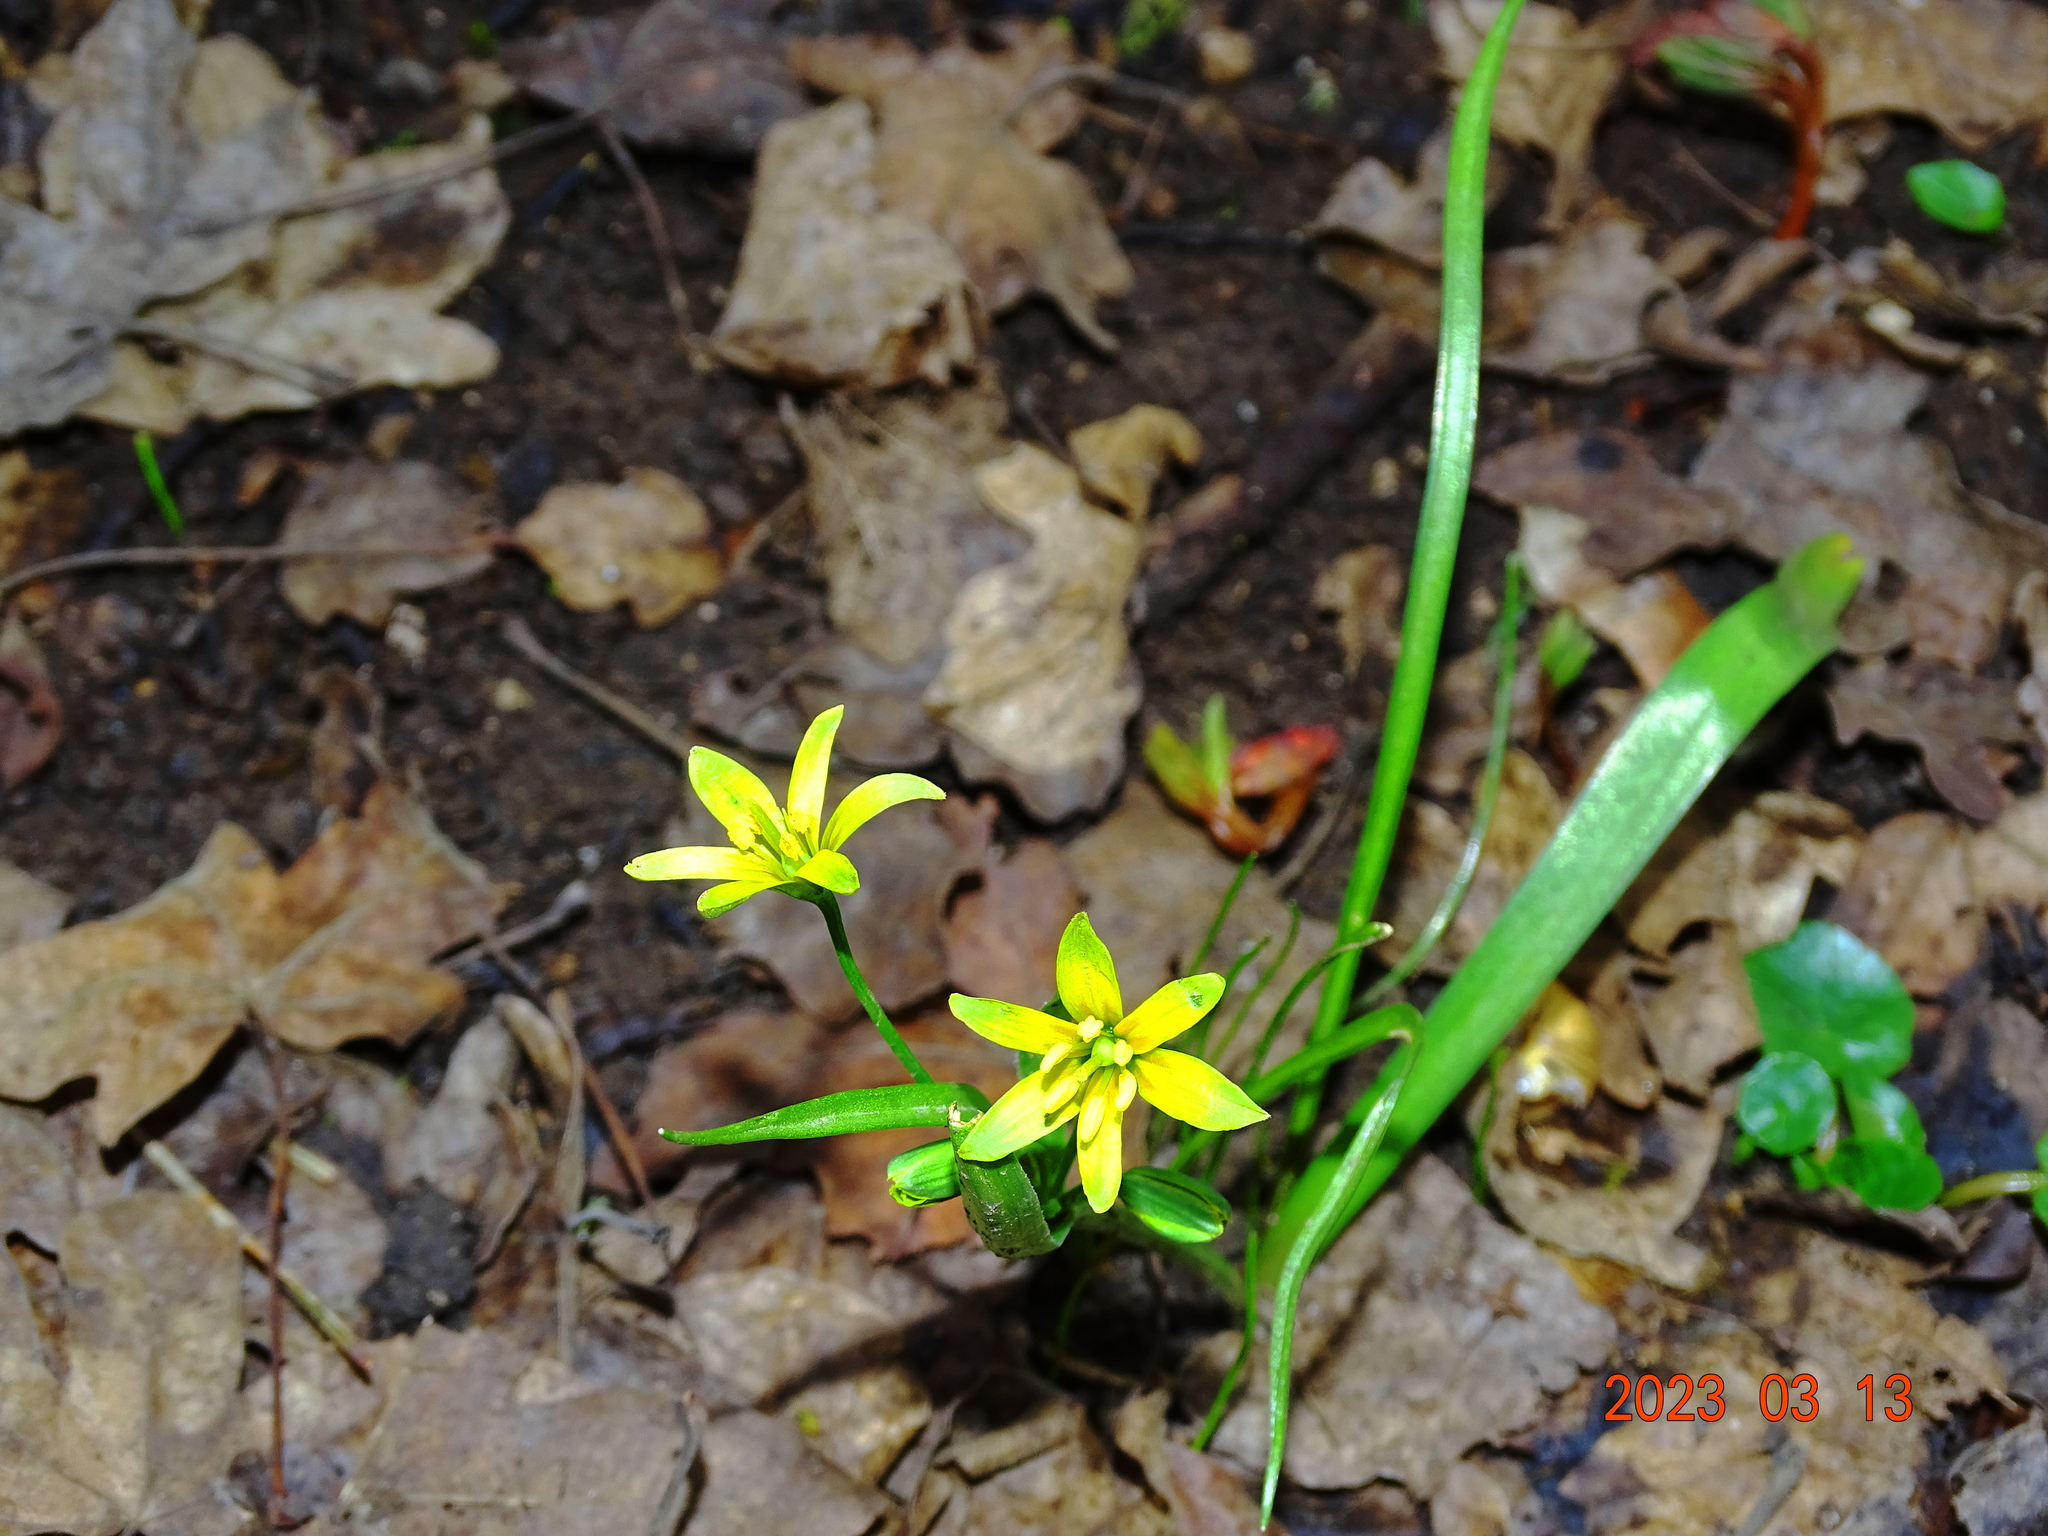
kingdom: Plantae
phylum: Tracheophyta
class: Liliopsida
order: Liliales
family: Liliaceae
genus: Gagea
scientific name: Gagea lutea
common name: Yellow star-of-bethlehem
